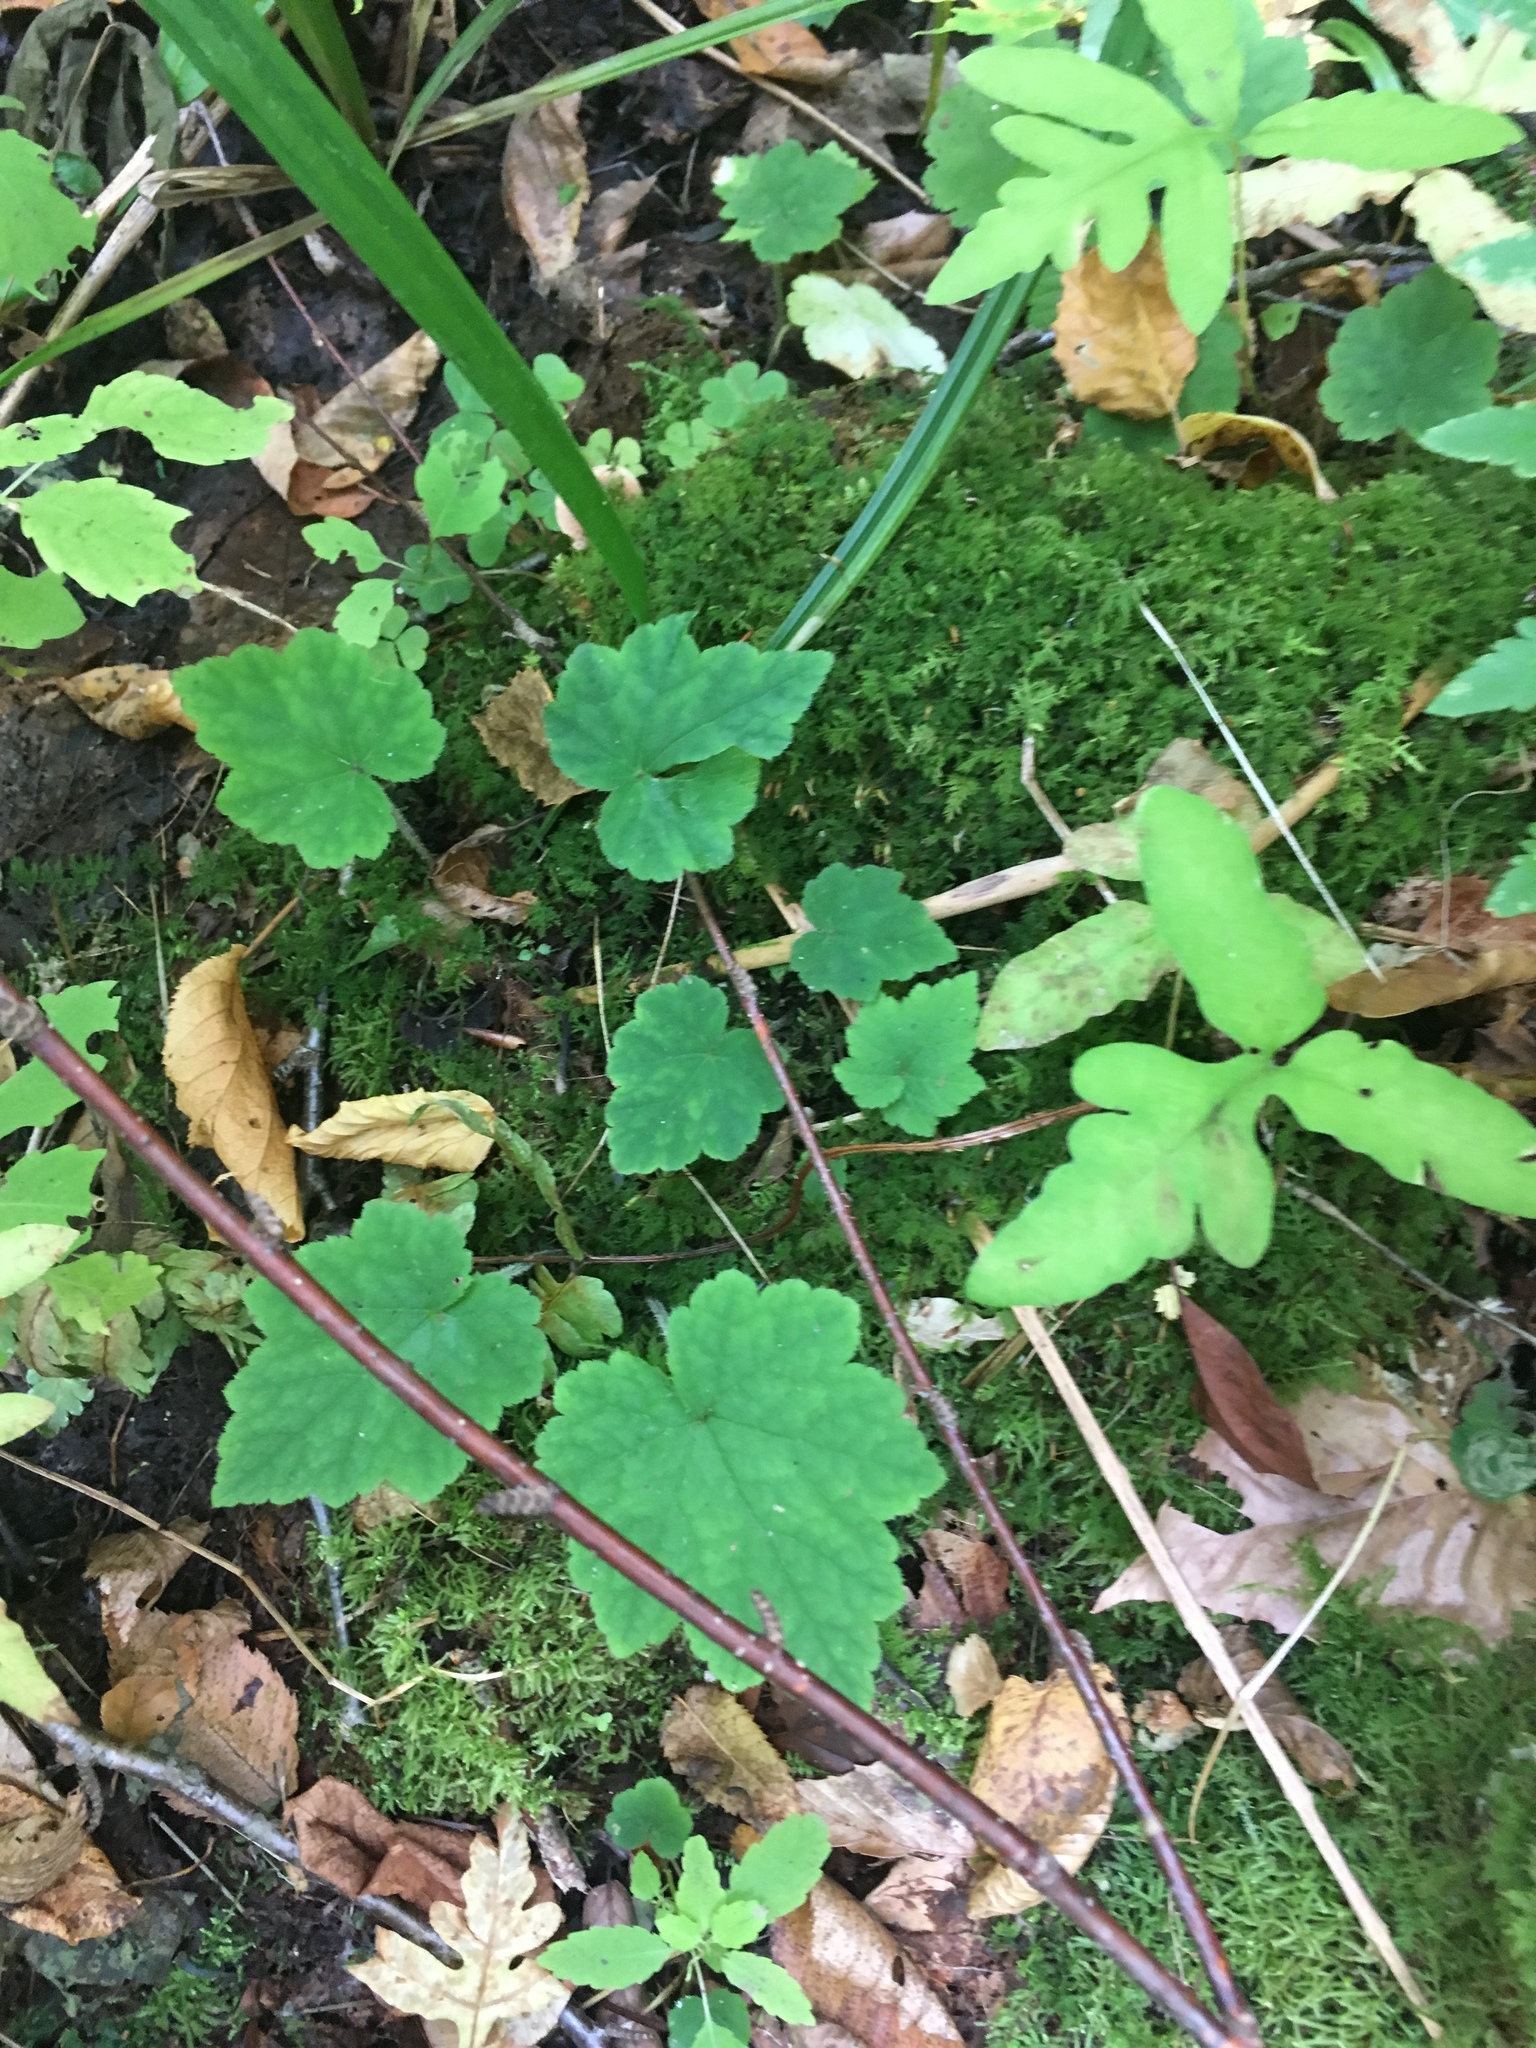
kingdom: Plantae
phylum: Tracheophyta
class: Magnoliopsida
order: Saxifragales
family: Saxifragaceae
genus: Tiarella
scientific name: Tiarella stolonifera
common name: Stoloniferous foamflower
